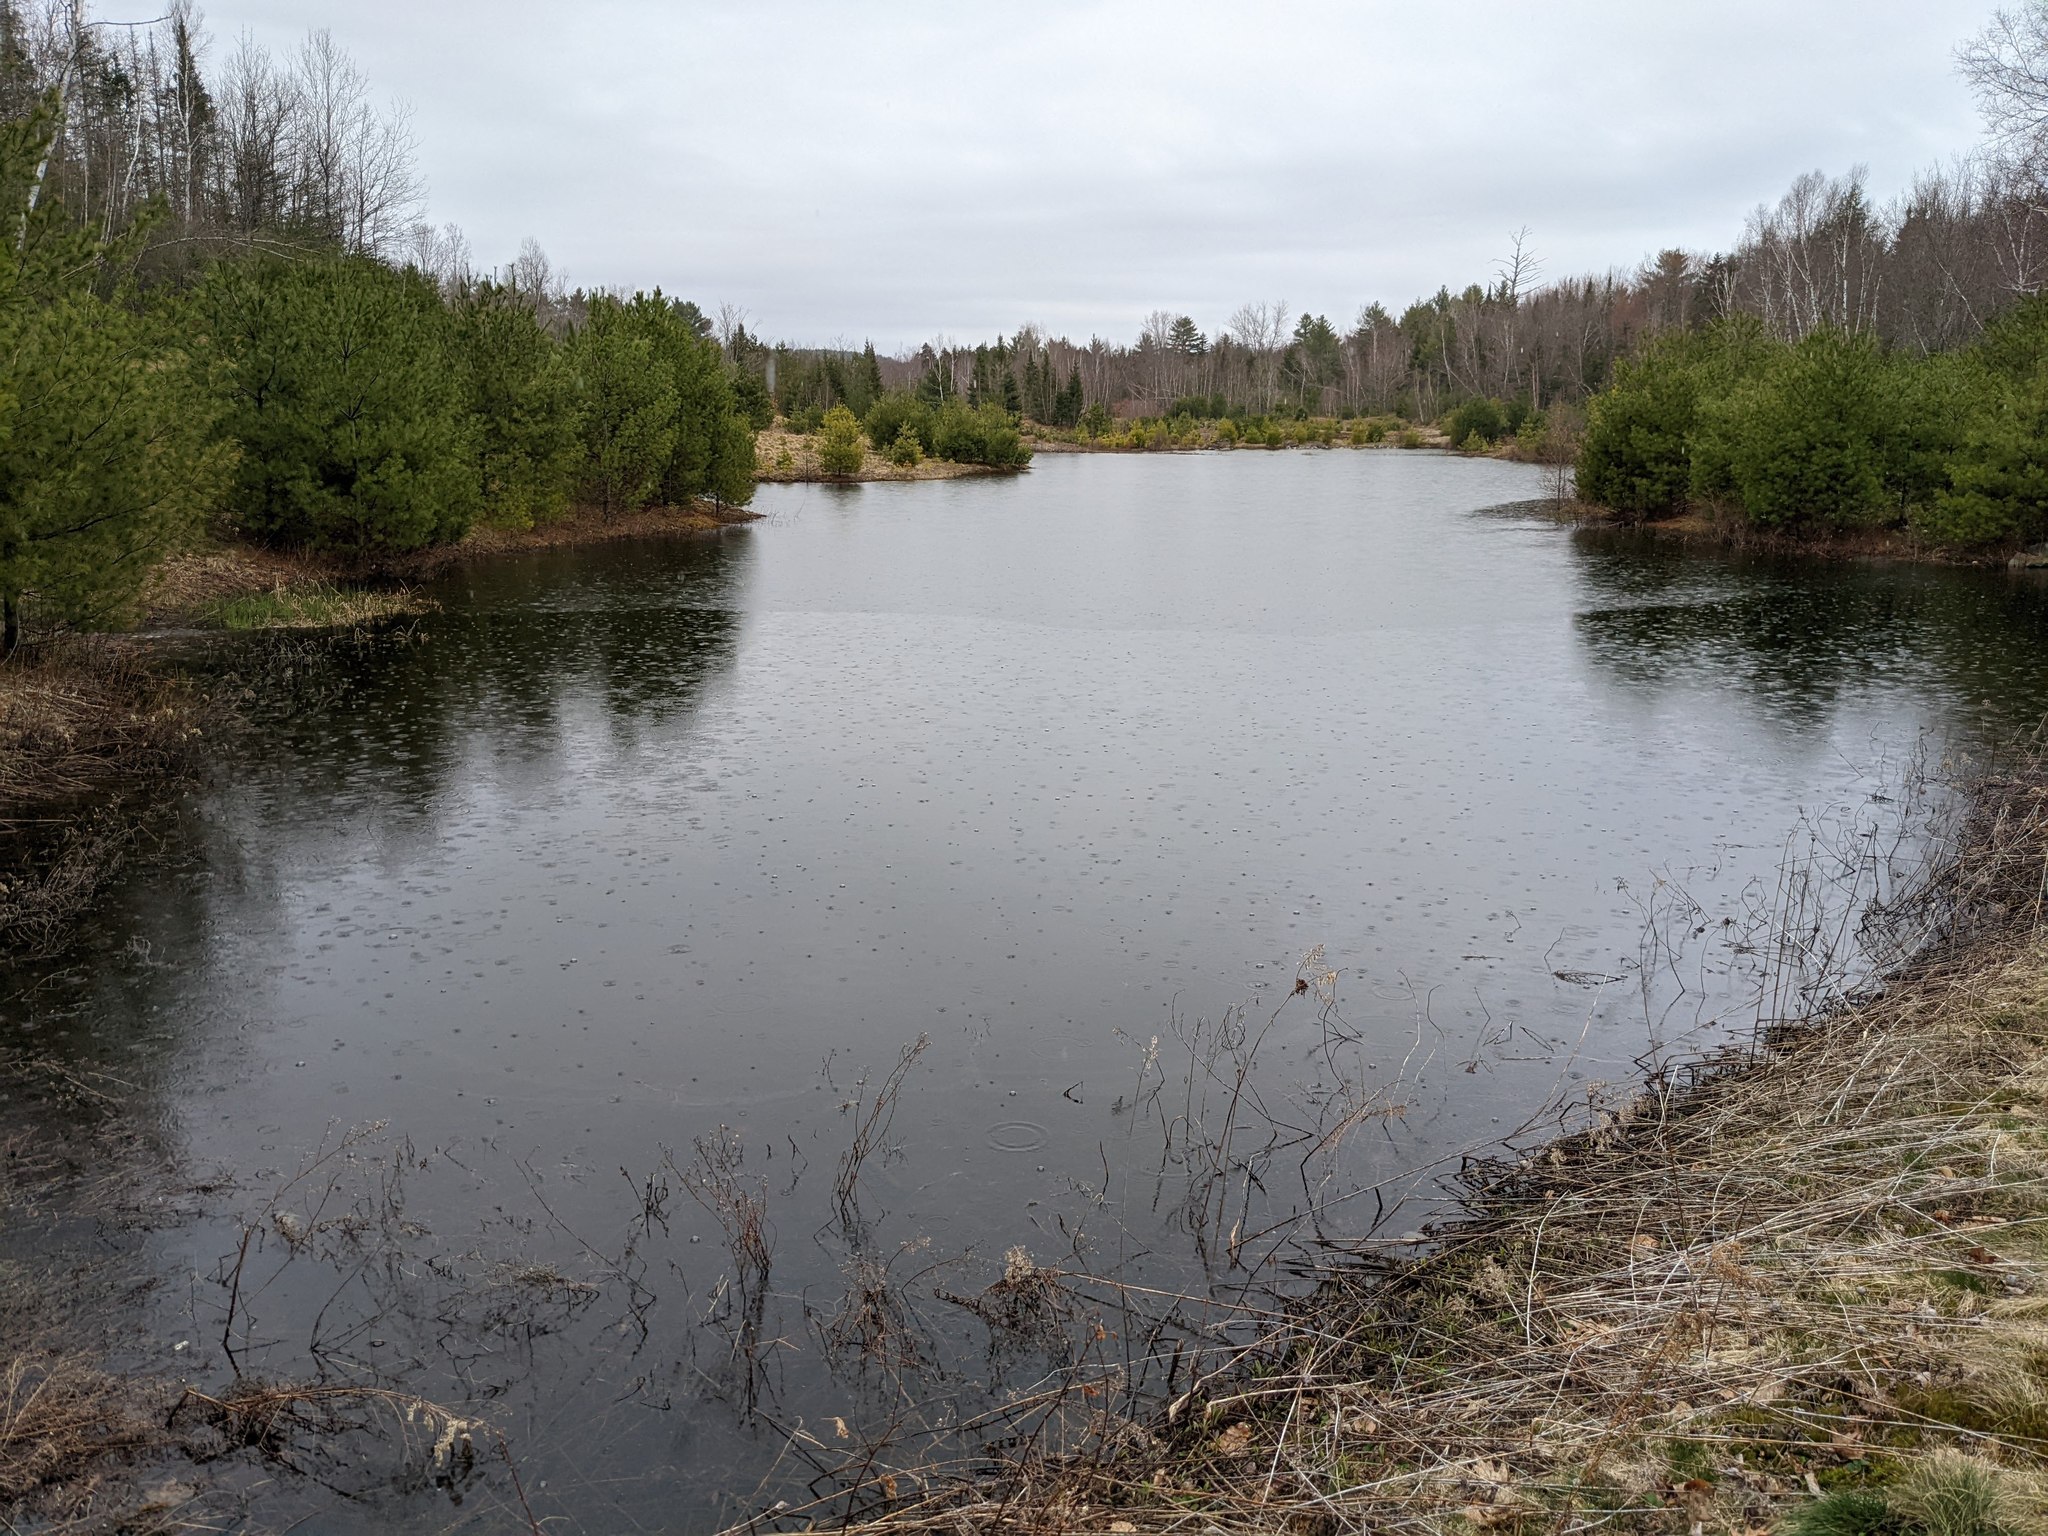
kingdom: Plantae
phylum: Tracheophyta
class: Pinopsida
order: Pinales
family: Pinaceae
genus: Pinus
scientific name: Pinus strobus
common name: Weymouth pine
